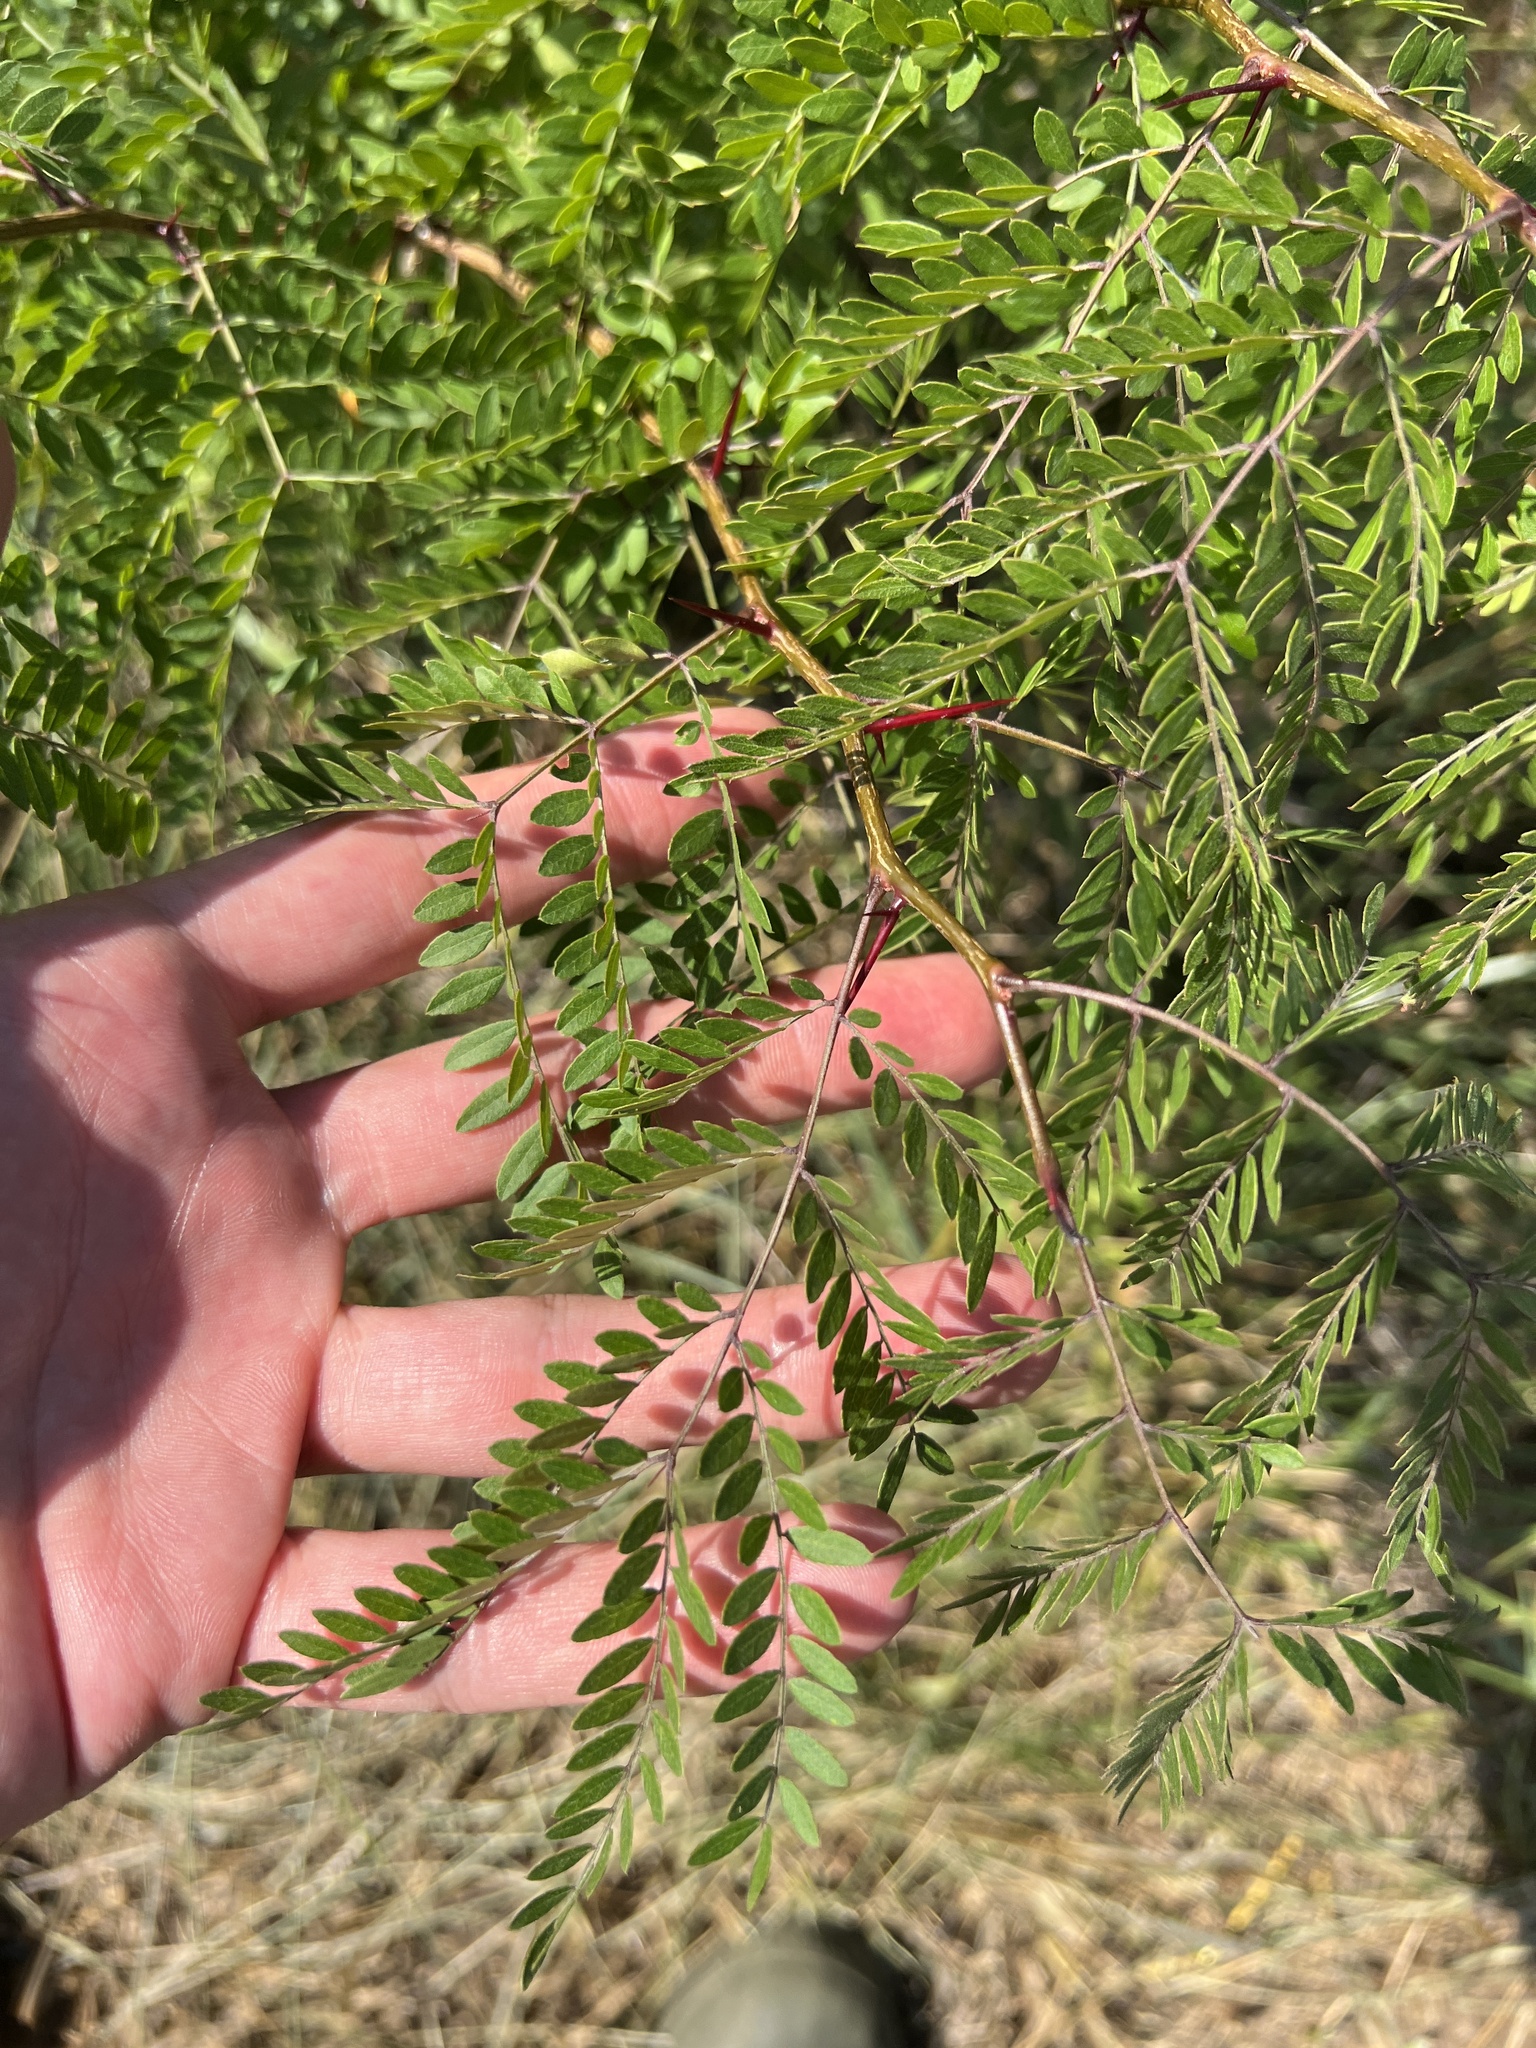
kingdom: Plantae
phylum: Tracheophyta
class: Magnoliopsida
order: Fabales
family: Fabaceae
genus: Gleditsia
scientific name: Gleditsia triacanthos
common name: Common honeylocust
